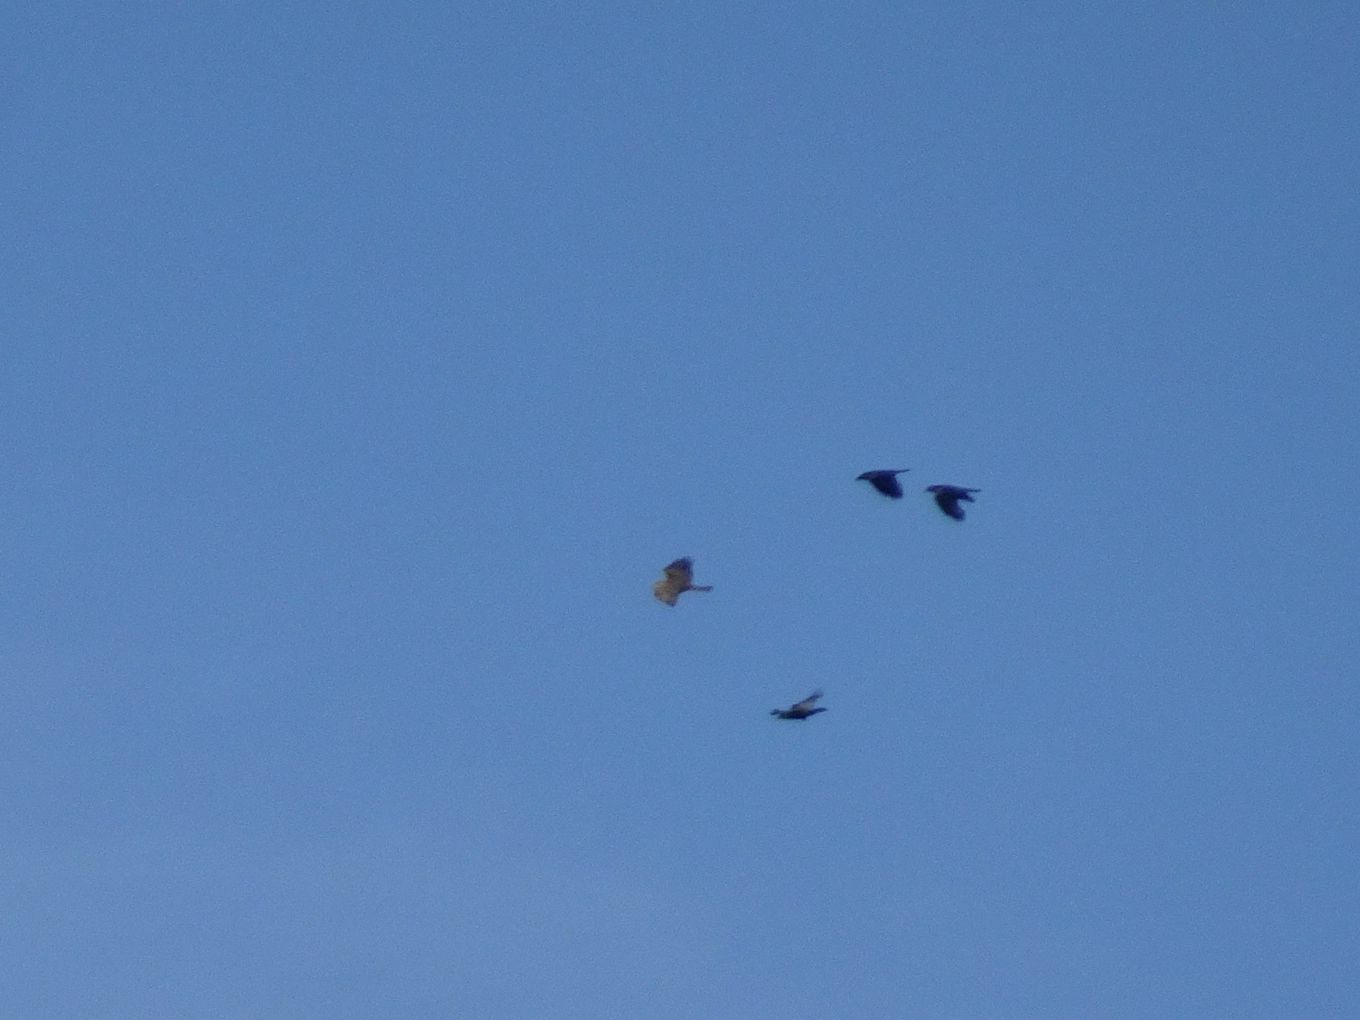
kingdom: Animalia
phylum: Chordata
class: Aves
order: Accipitriformes
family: Accipitridae
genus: Buteo
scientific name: Buteo buteo
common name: Common buzzard
